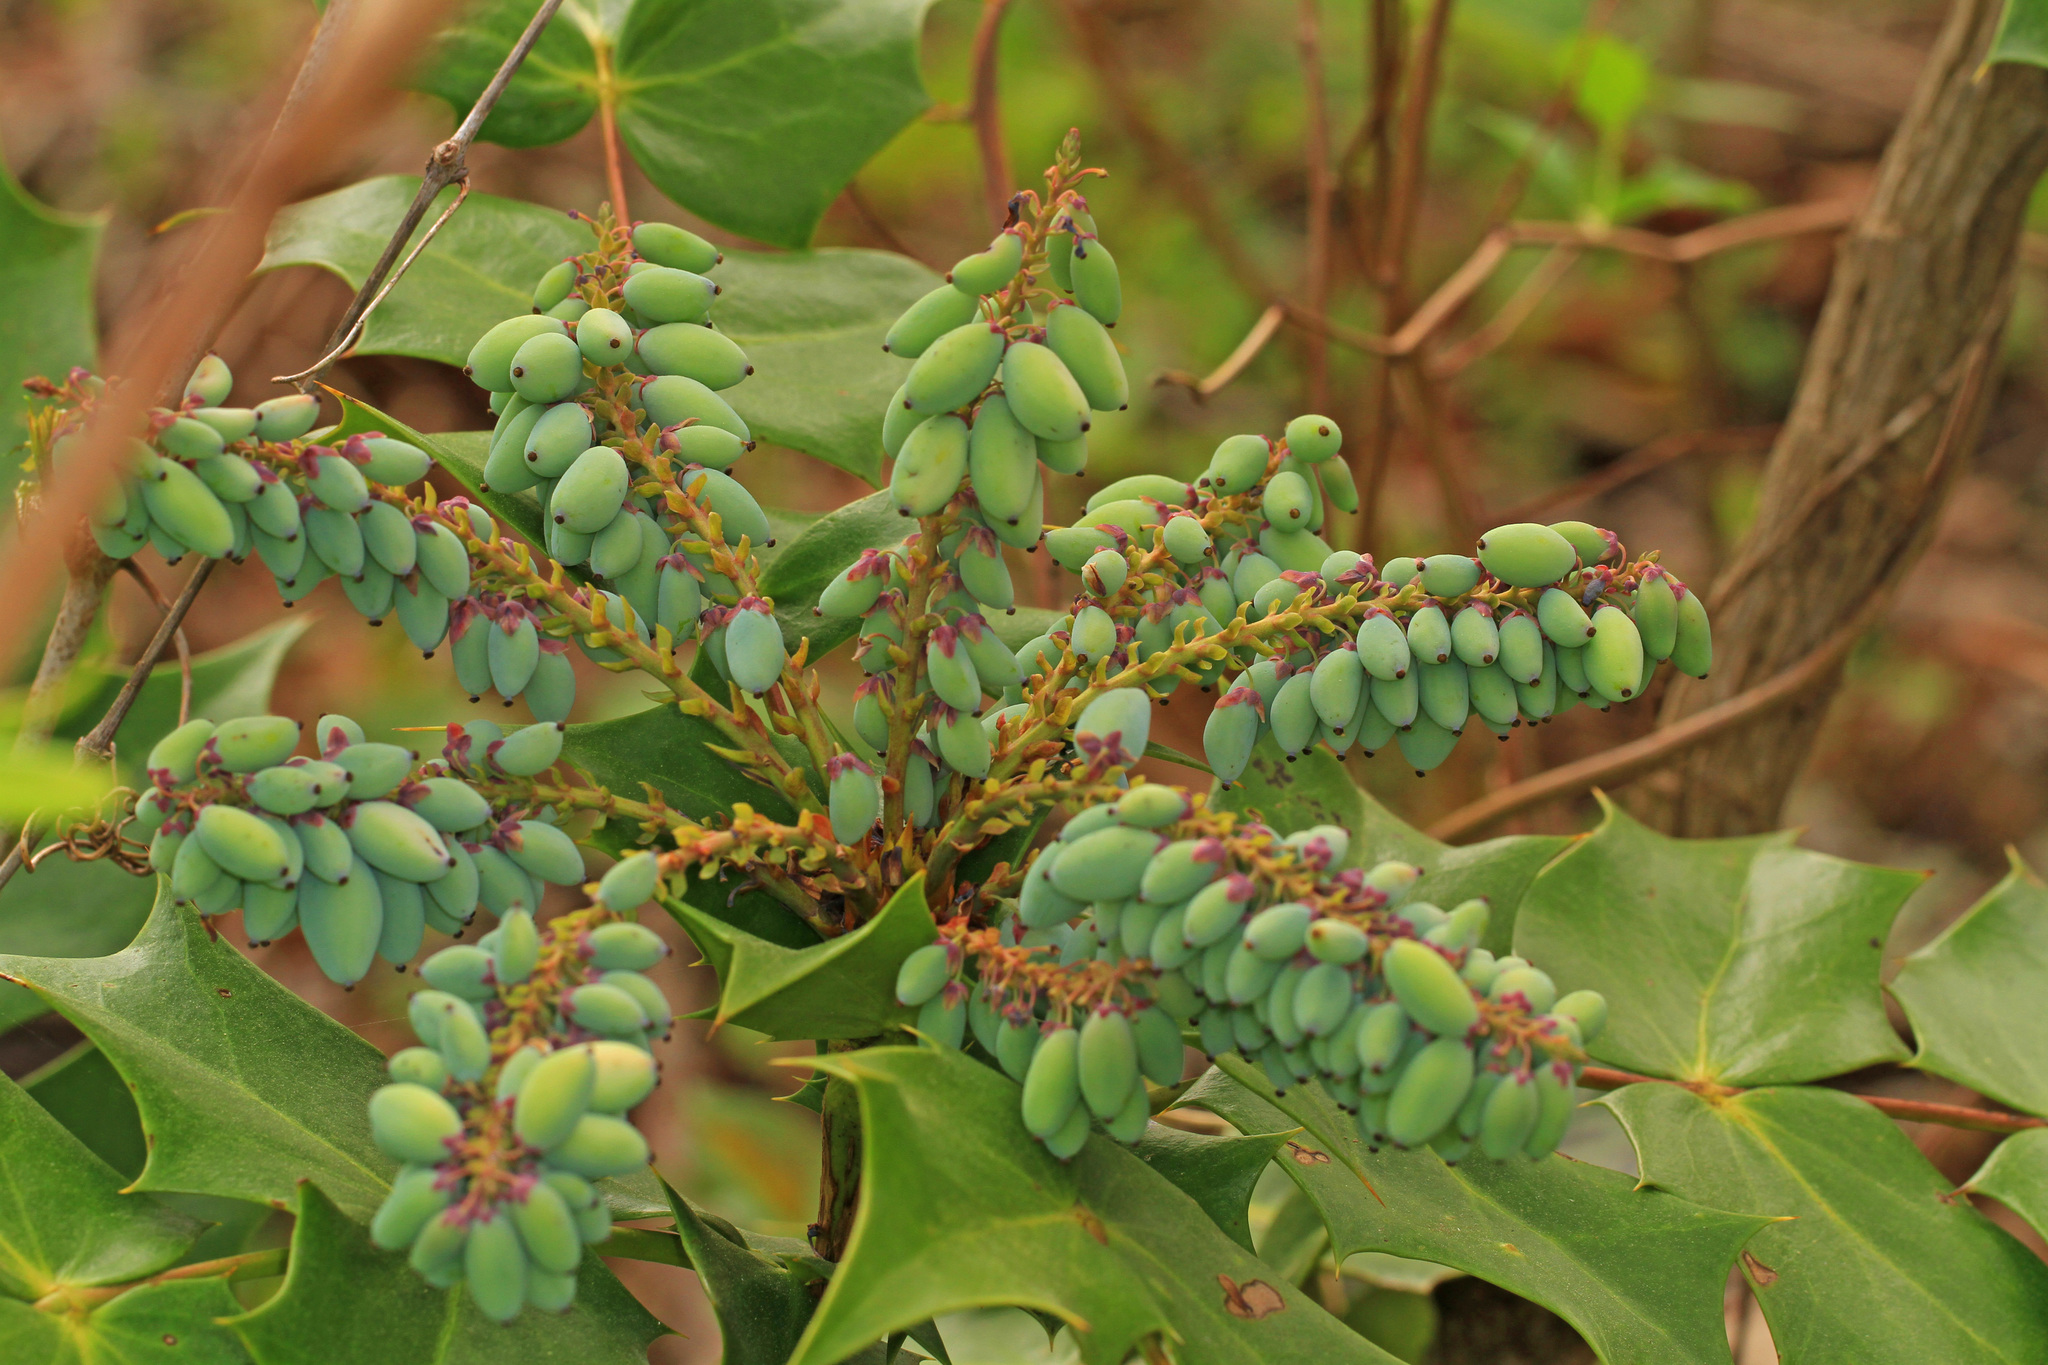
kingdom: Plantae
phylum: Tracheophyta
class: Magnoliopsida
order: Ranunculales
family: Berberidaceae
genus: Mahonia
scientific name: Mahonia bealei
